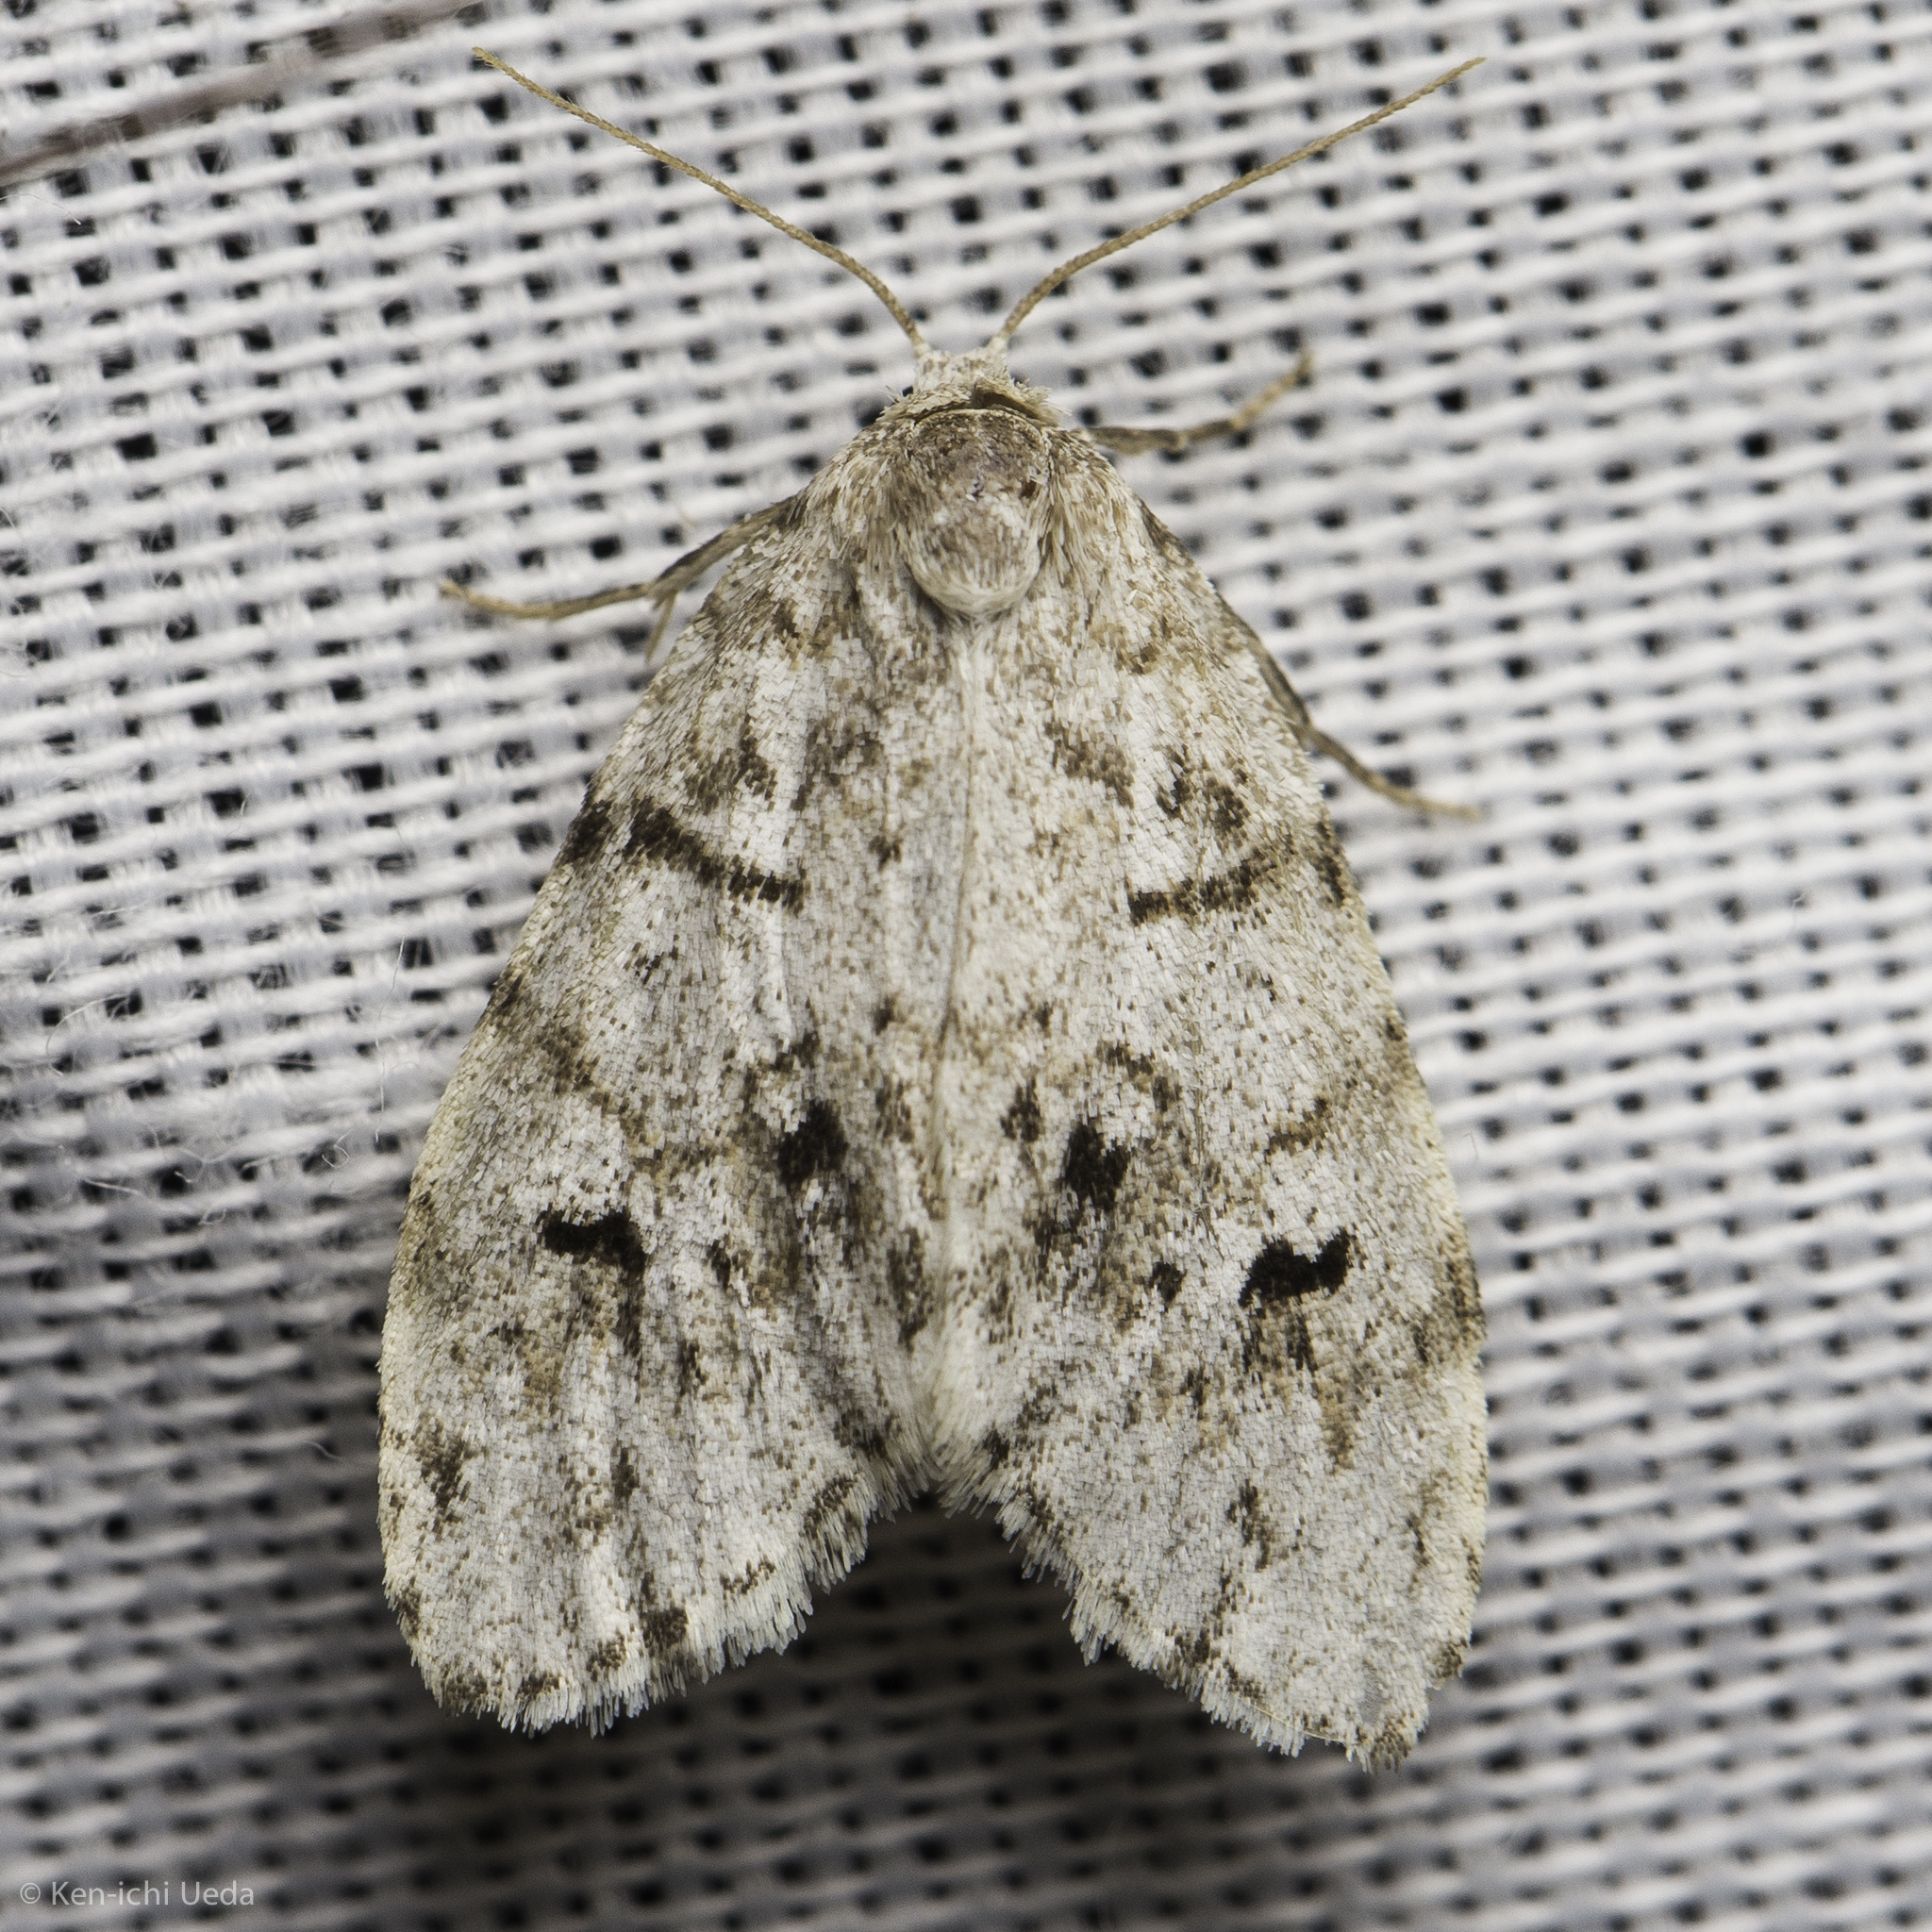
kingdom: Animalia
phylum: Arthropoda
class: Insecta
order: Lepidoptera
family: Erebidae
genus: Clemensia
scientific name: Clemensia umbrata
